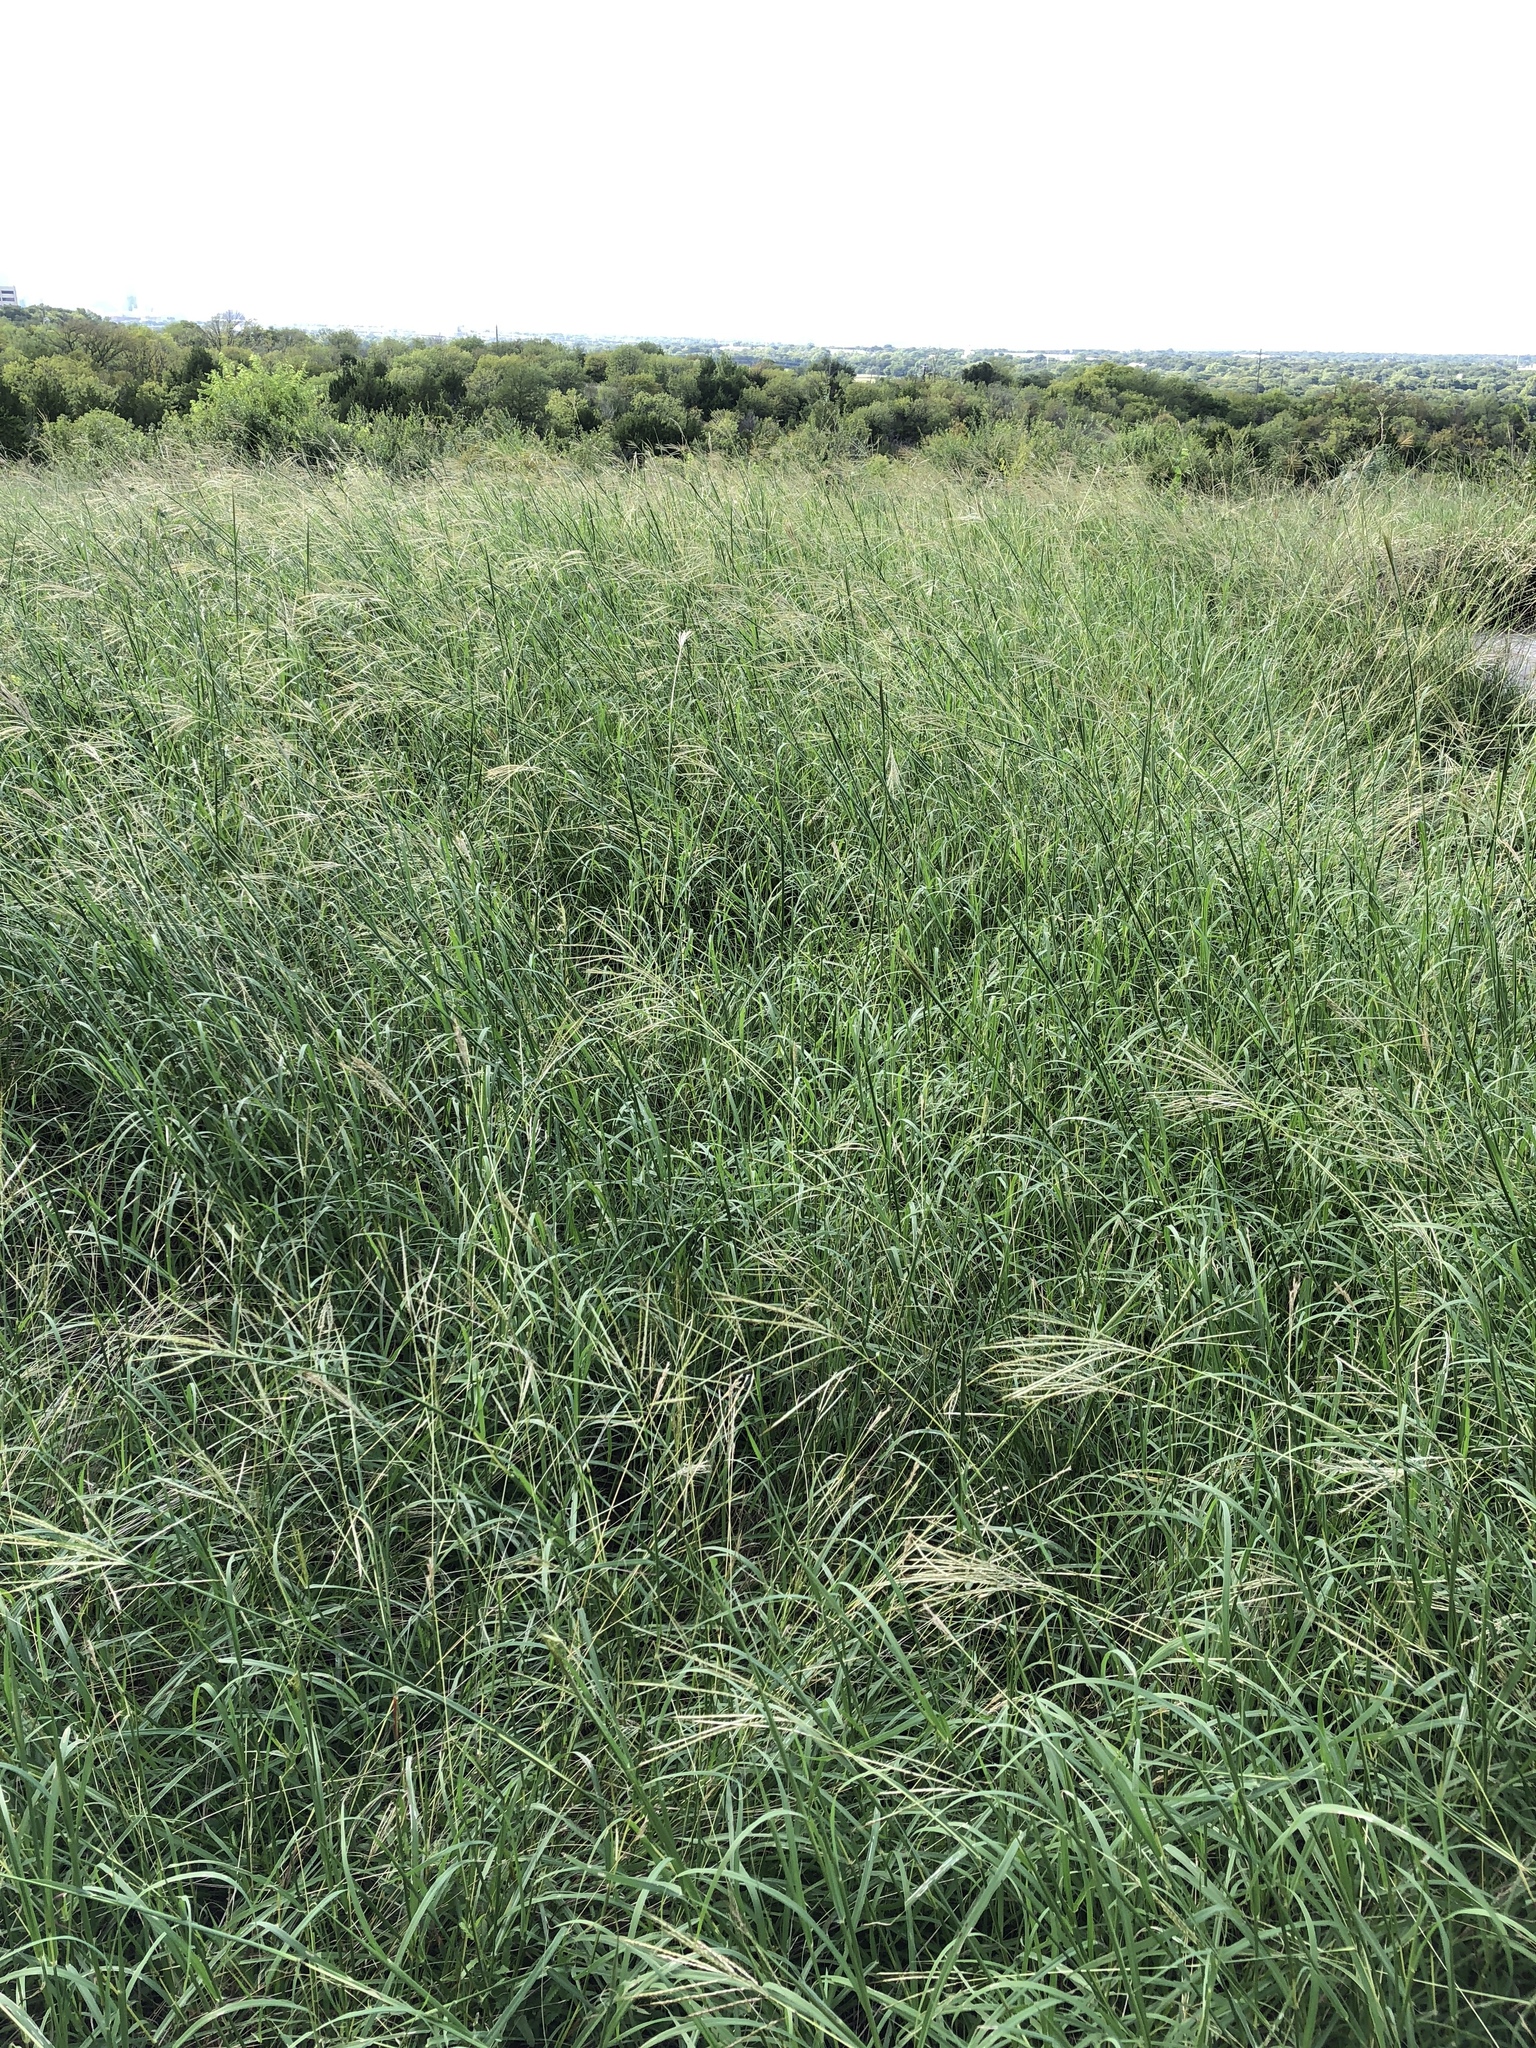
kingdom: Plantae
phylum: Tracheophyta
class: Liliopsida
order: Poales
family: Poaceae
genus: Bothriochloa
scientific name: Bothriochloa ischaemum
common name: Yellow bluestem
